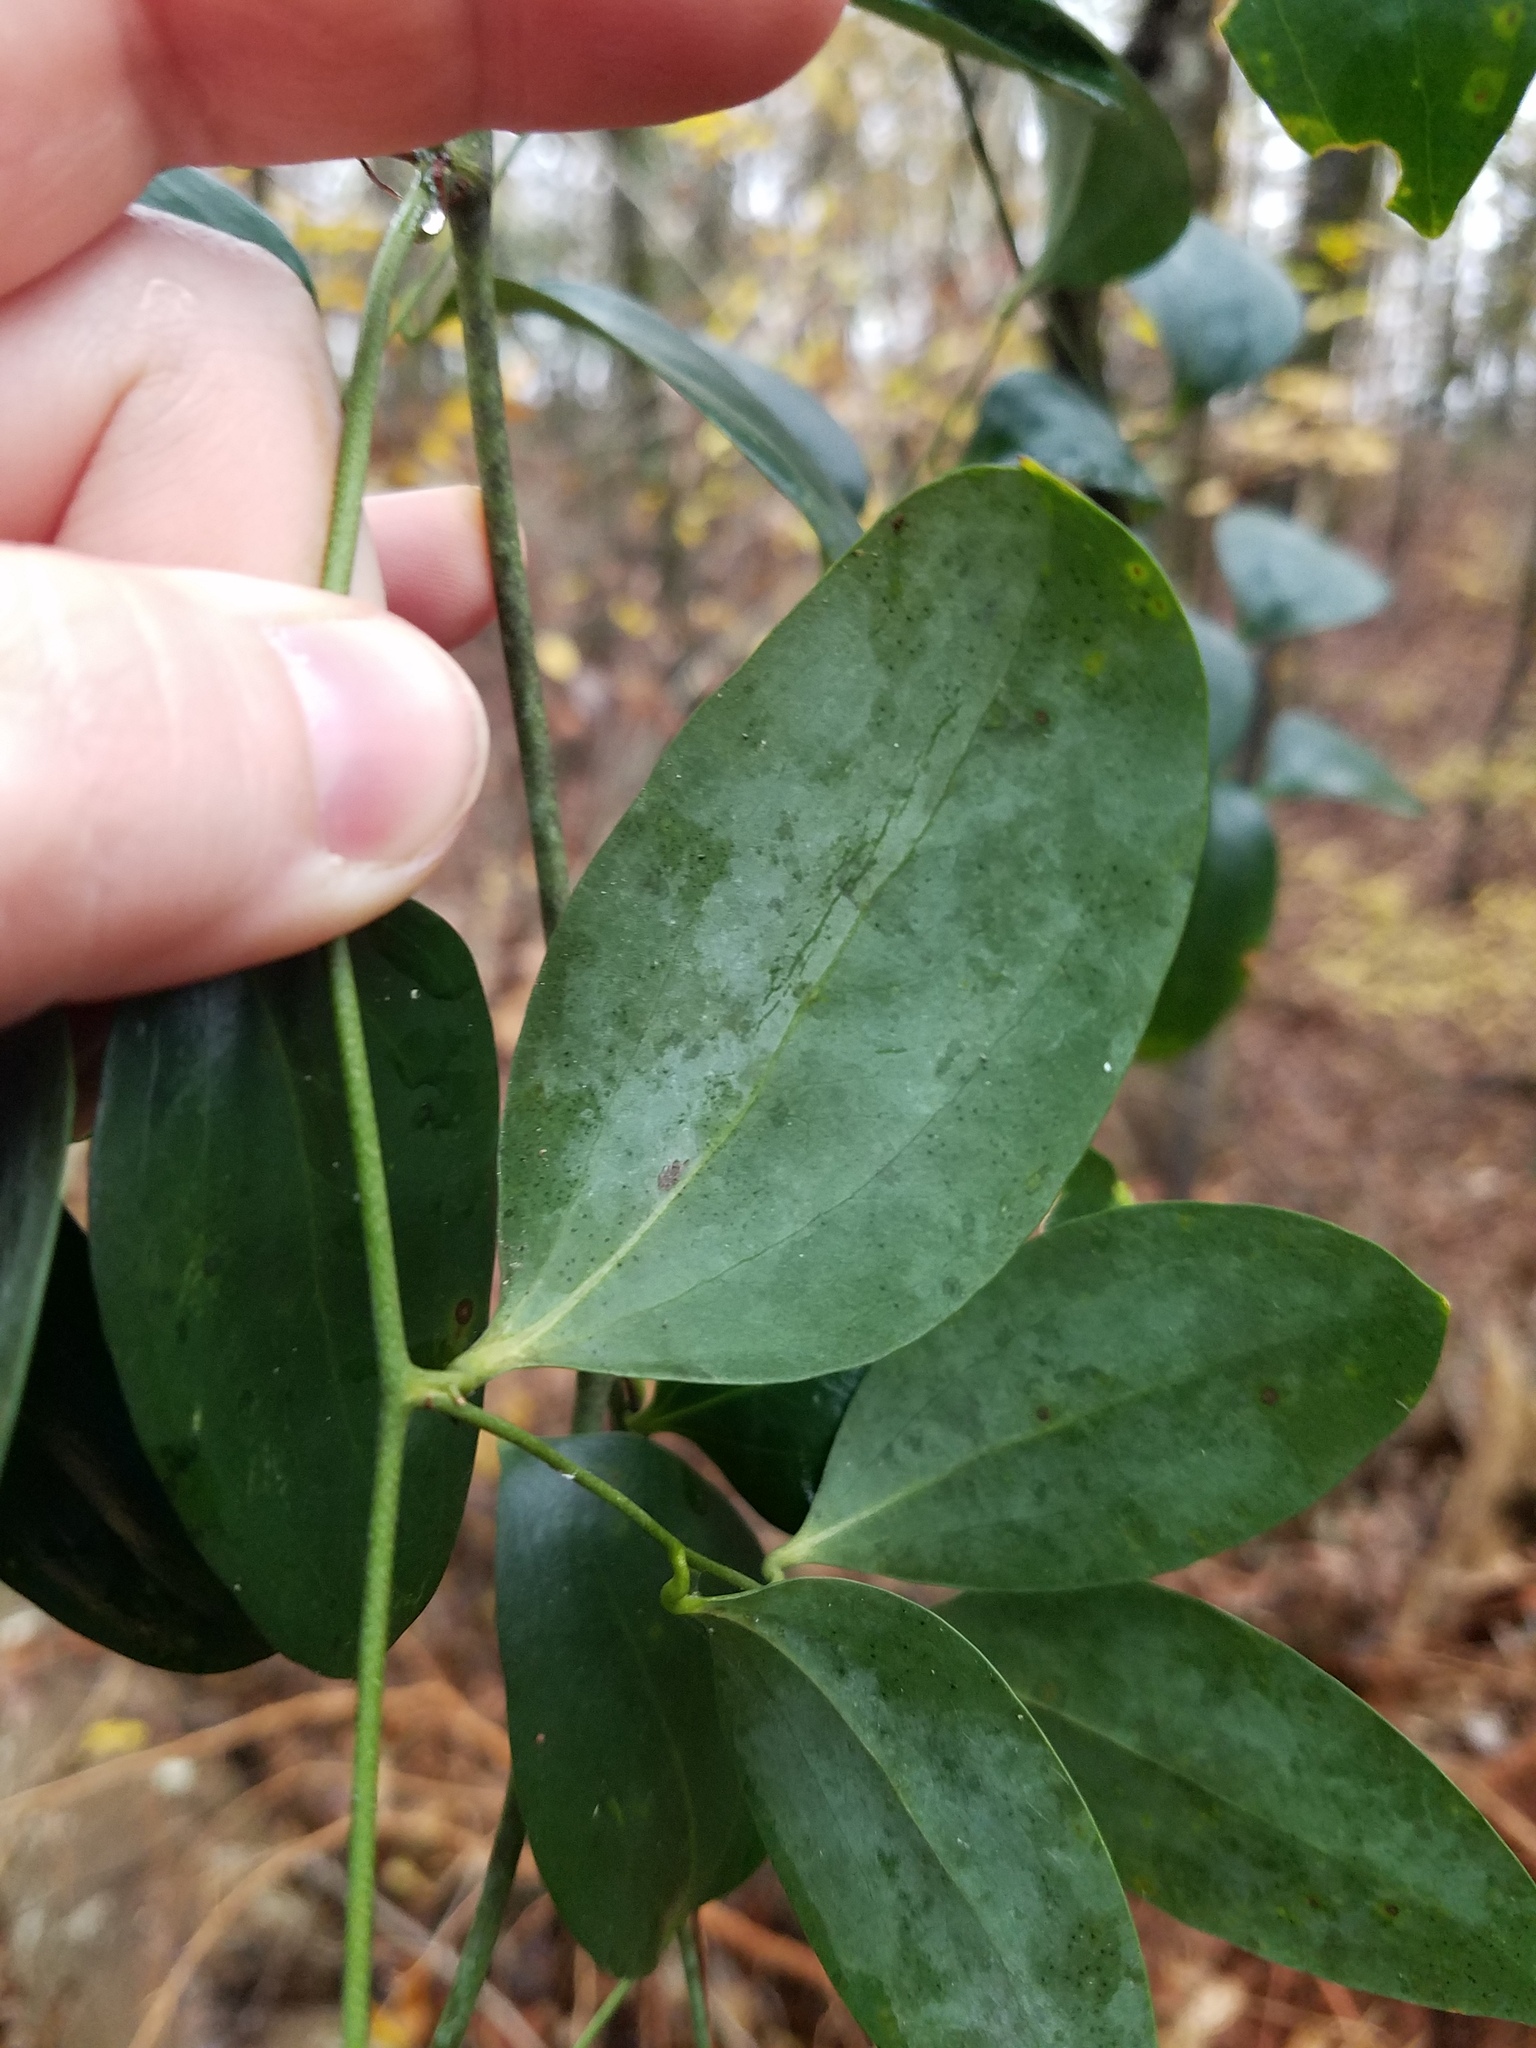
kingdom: Plantae
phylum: Tracheophyta
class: Liliopsida
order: Liliales
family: Smilacaceae
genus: Smilax
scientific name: Smilax maritima
